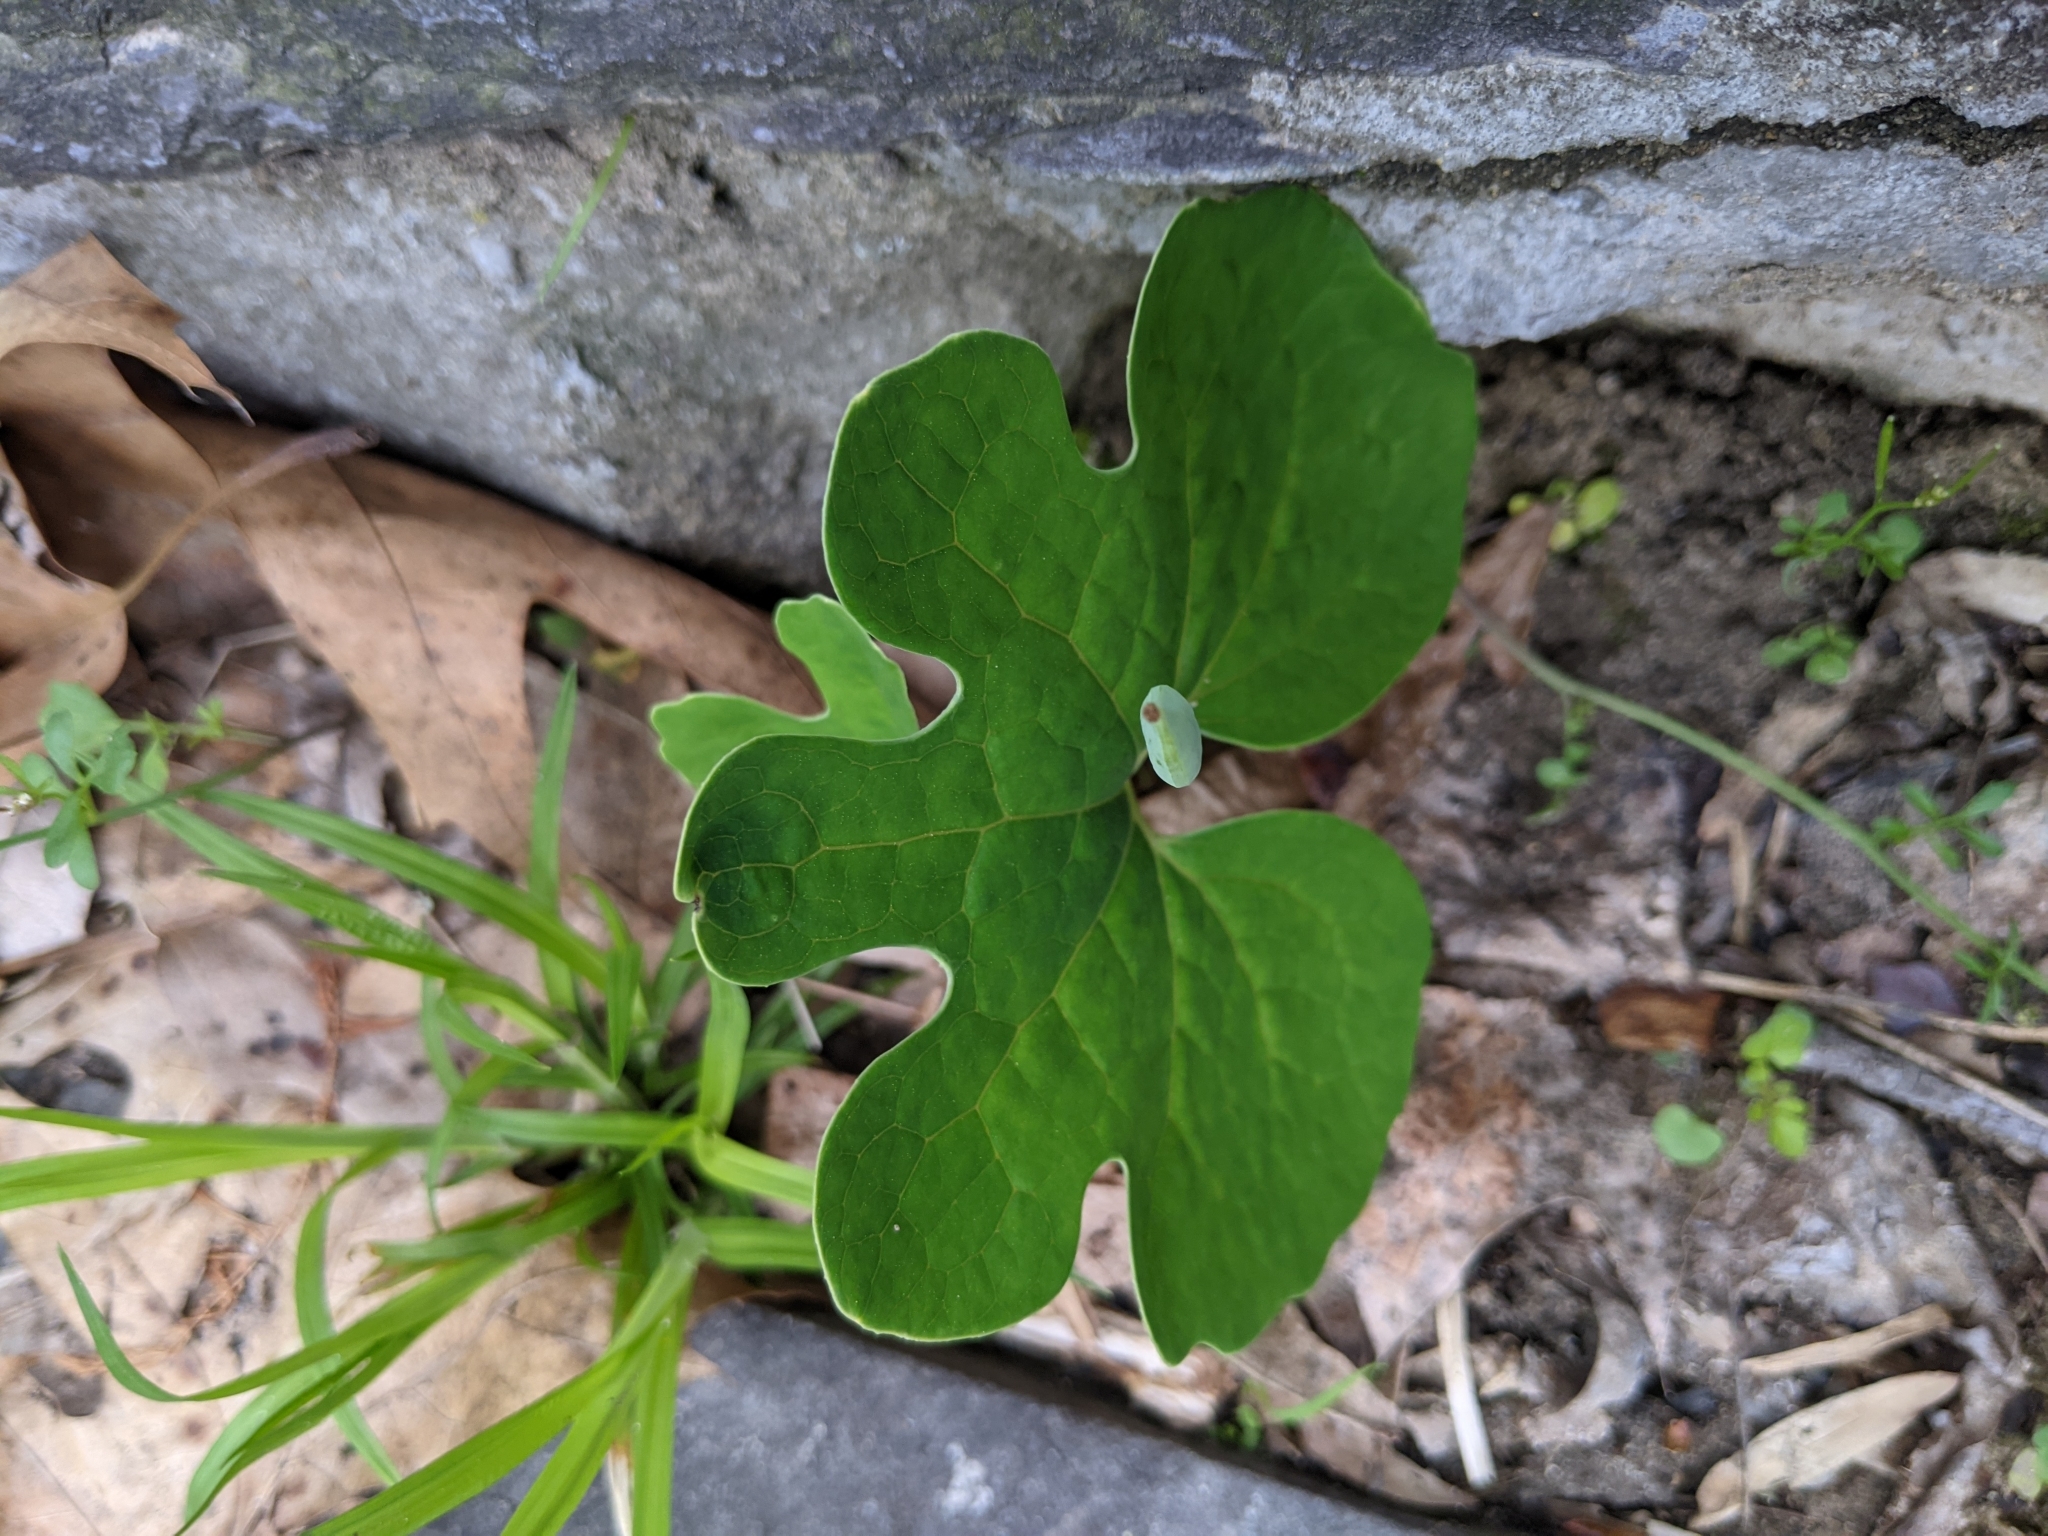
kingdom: Plantae
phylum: Tracheophyta
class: Magnoliopsida
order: Ranunculales
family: Papaveraceae
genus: Sanguinaria
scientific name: Sanguinaria canadensis
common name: Bloodroot
